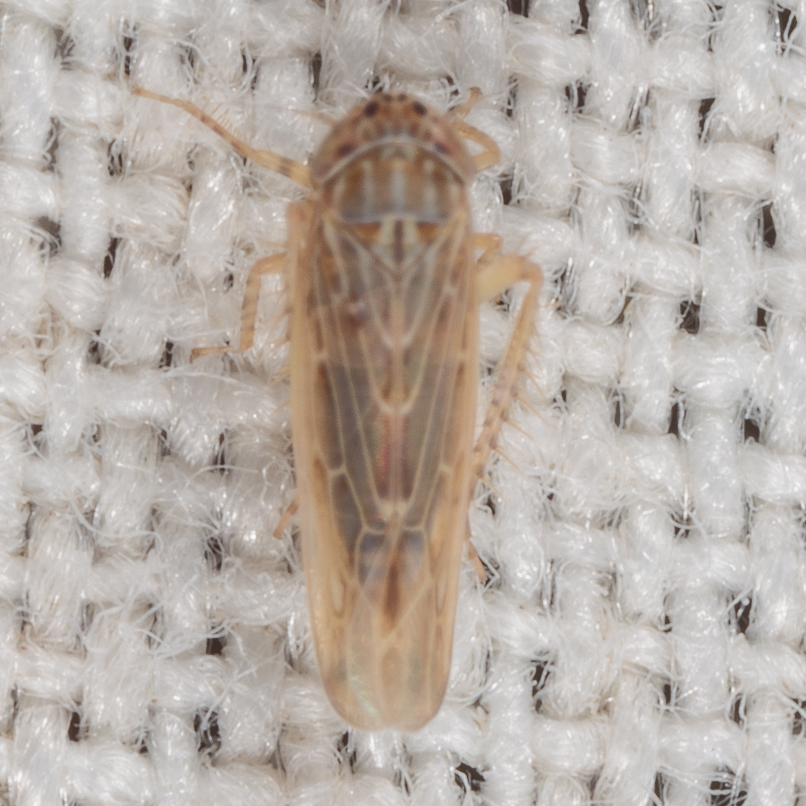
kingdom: Animalia
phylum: Arthropoda
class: Insecta
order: Hemiptera
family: Cicadellidae
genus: Graminella
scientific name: Graminella sonora
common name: Lesser lawn leafhopper
